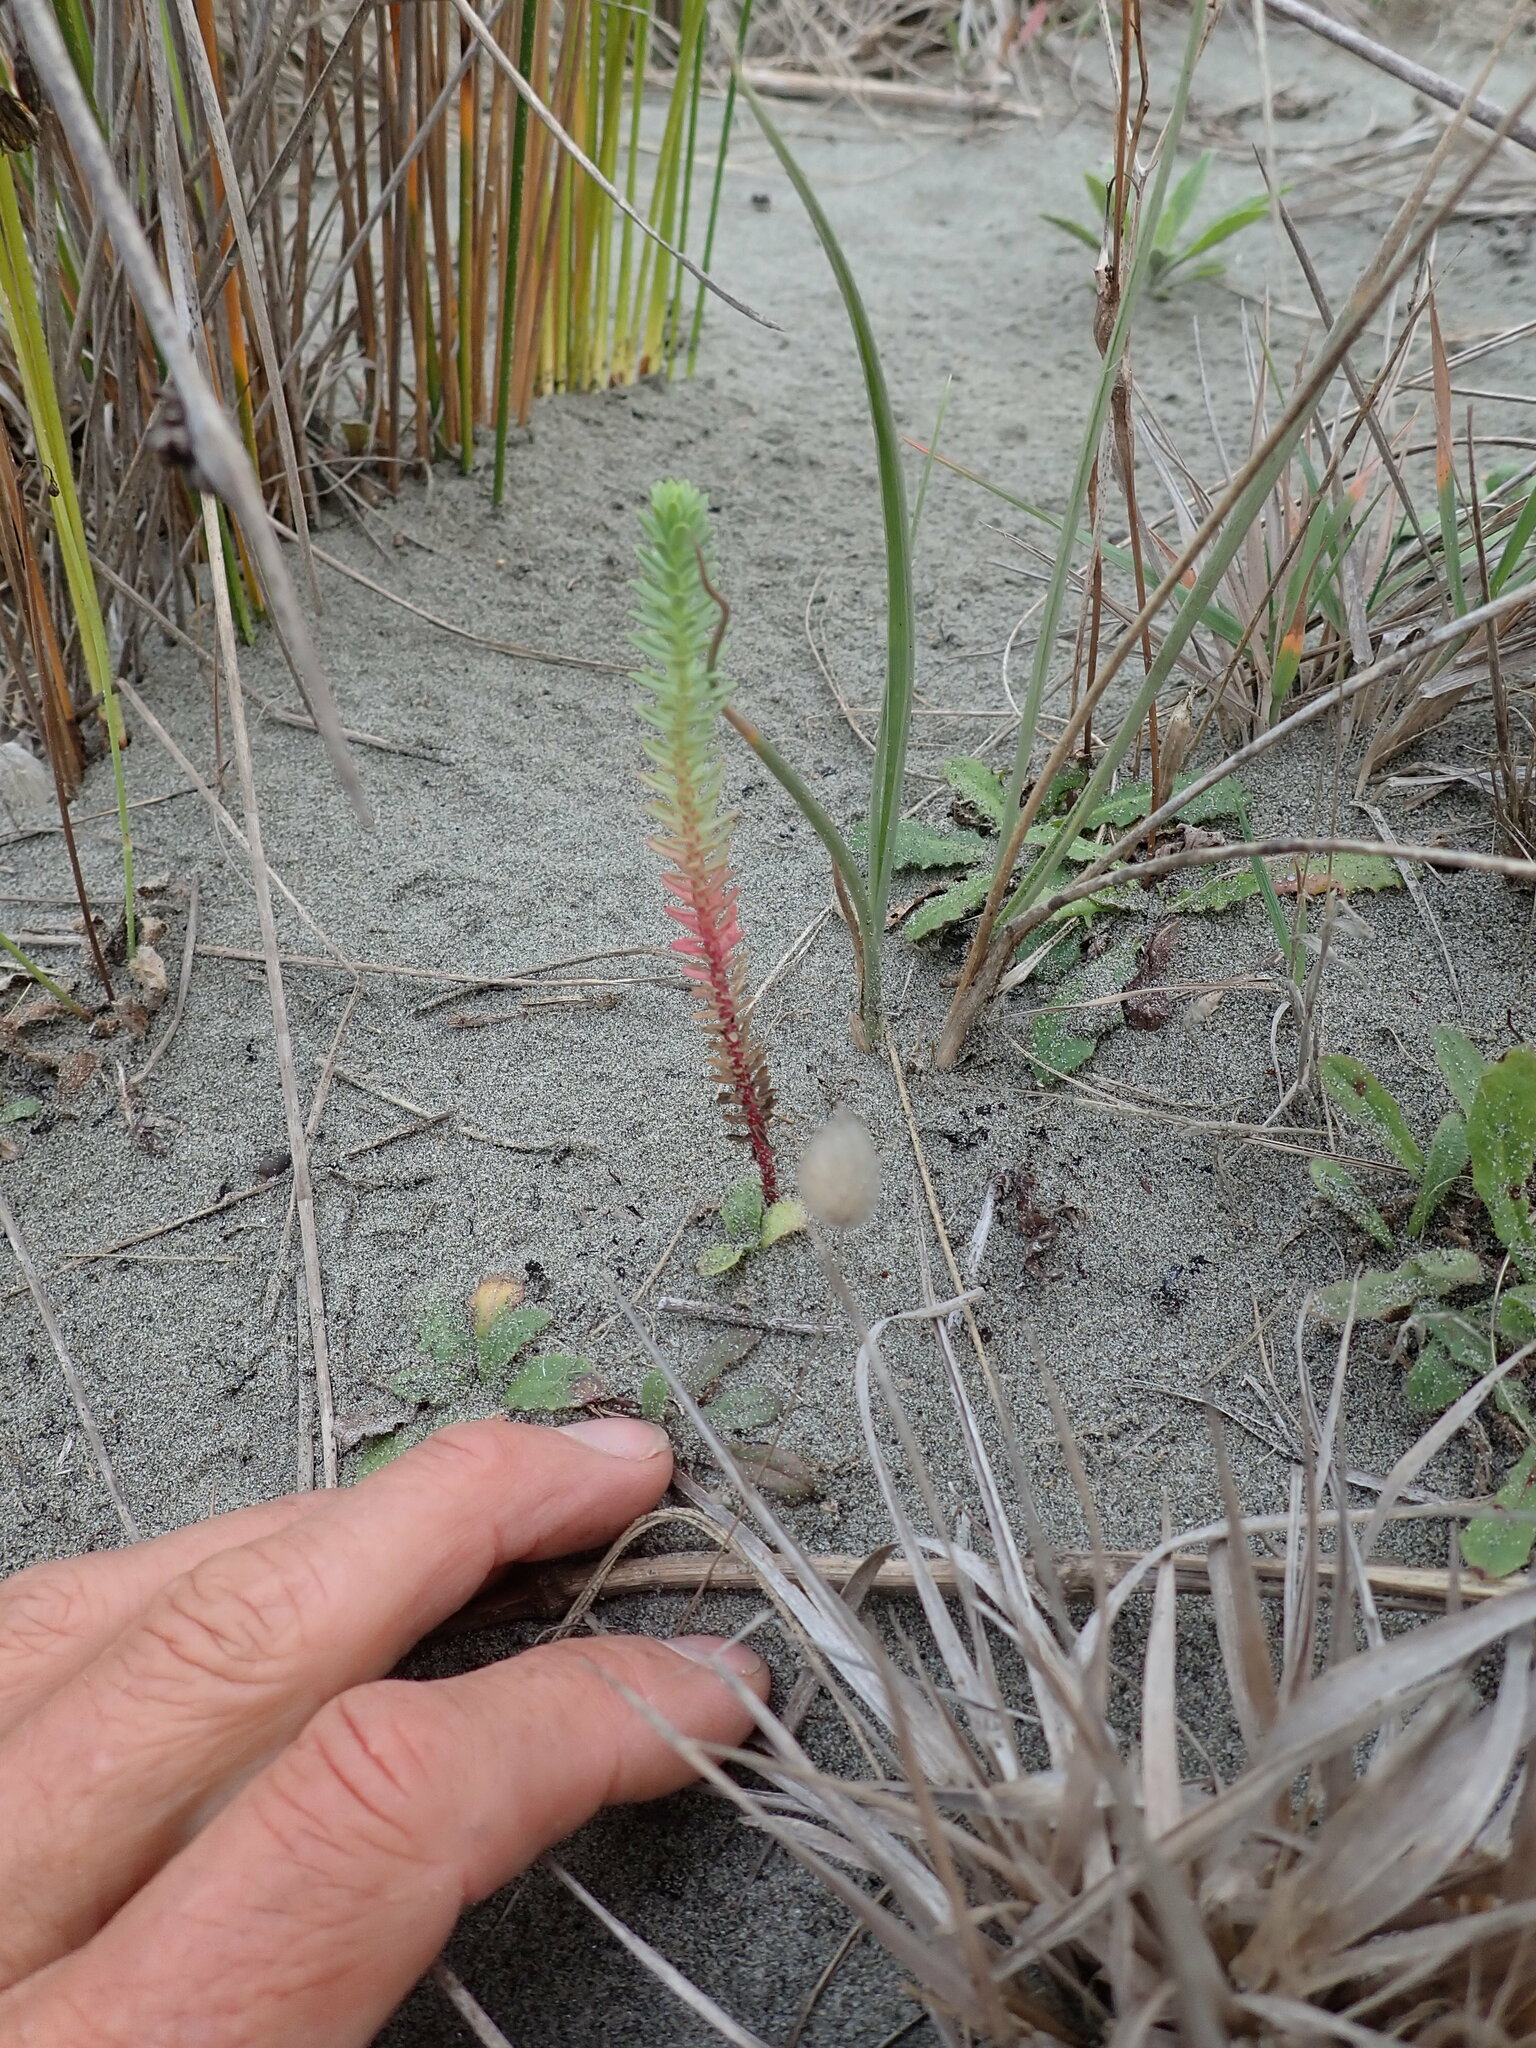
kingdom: Plantae
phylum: Tracheophyta
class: Magnoliopsida
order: Malpighiales
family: Euphorbiaceae
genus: Euphorbia
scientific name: Euphorbia paralias
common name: Sea spurge
